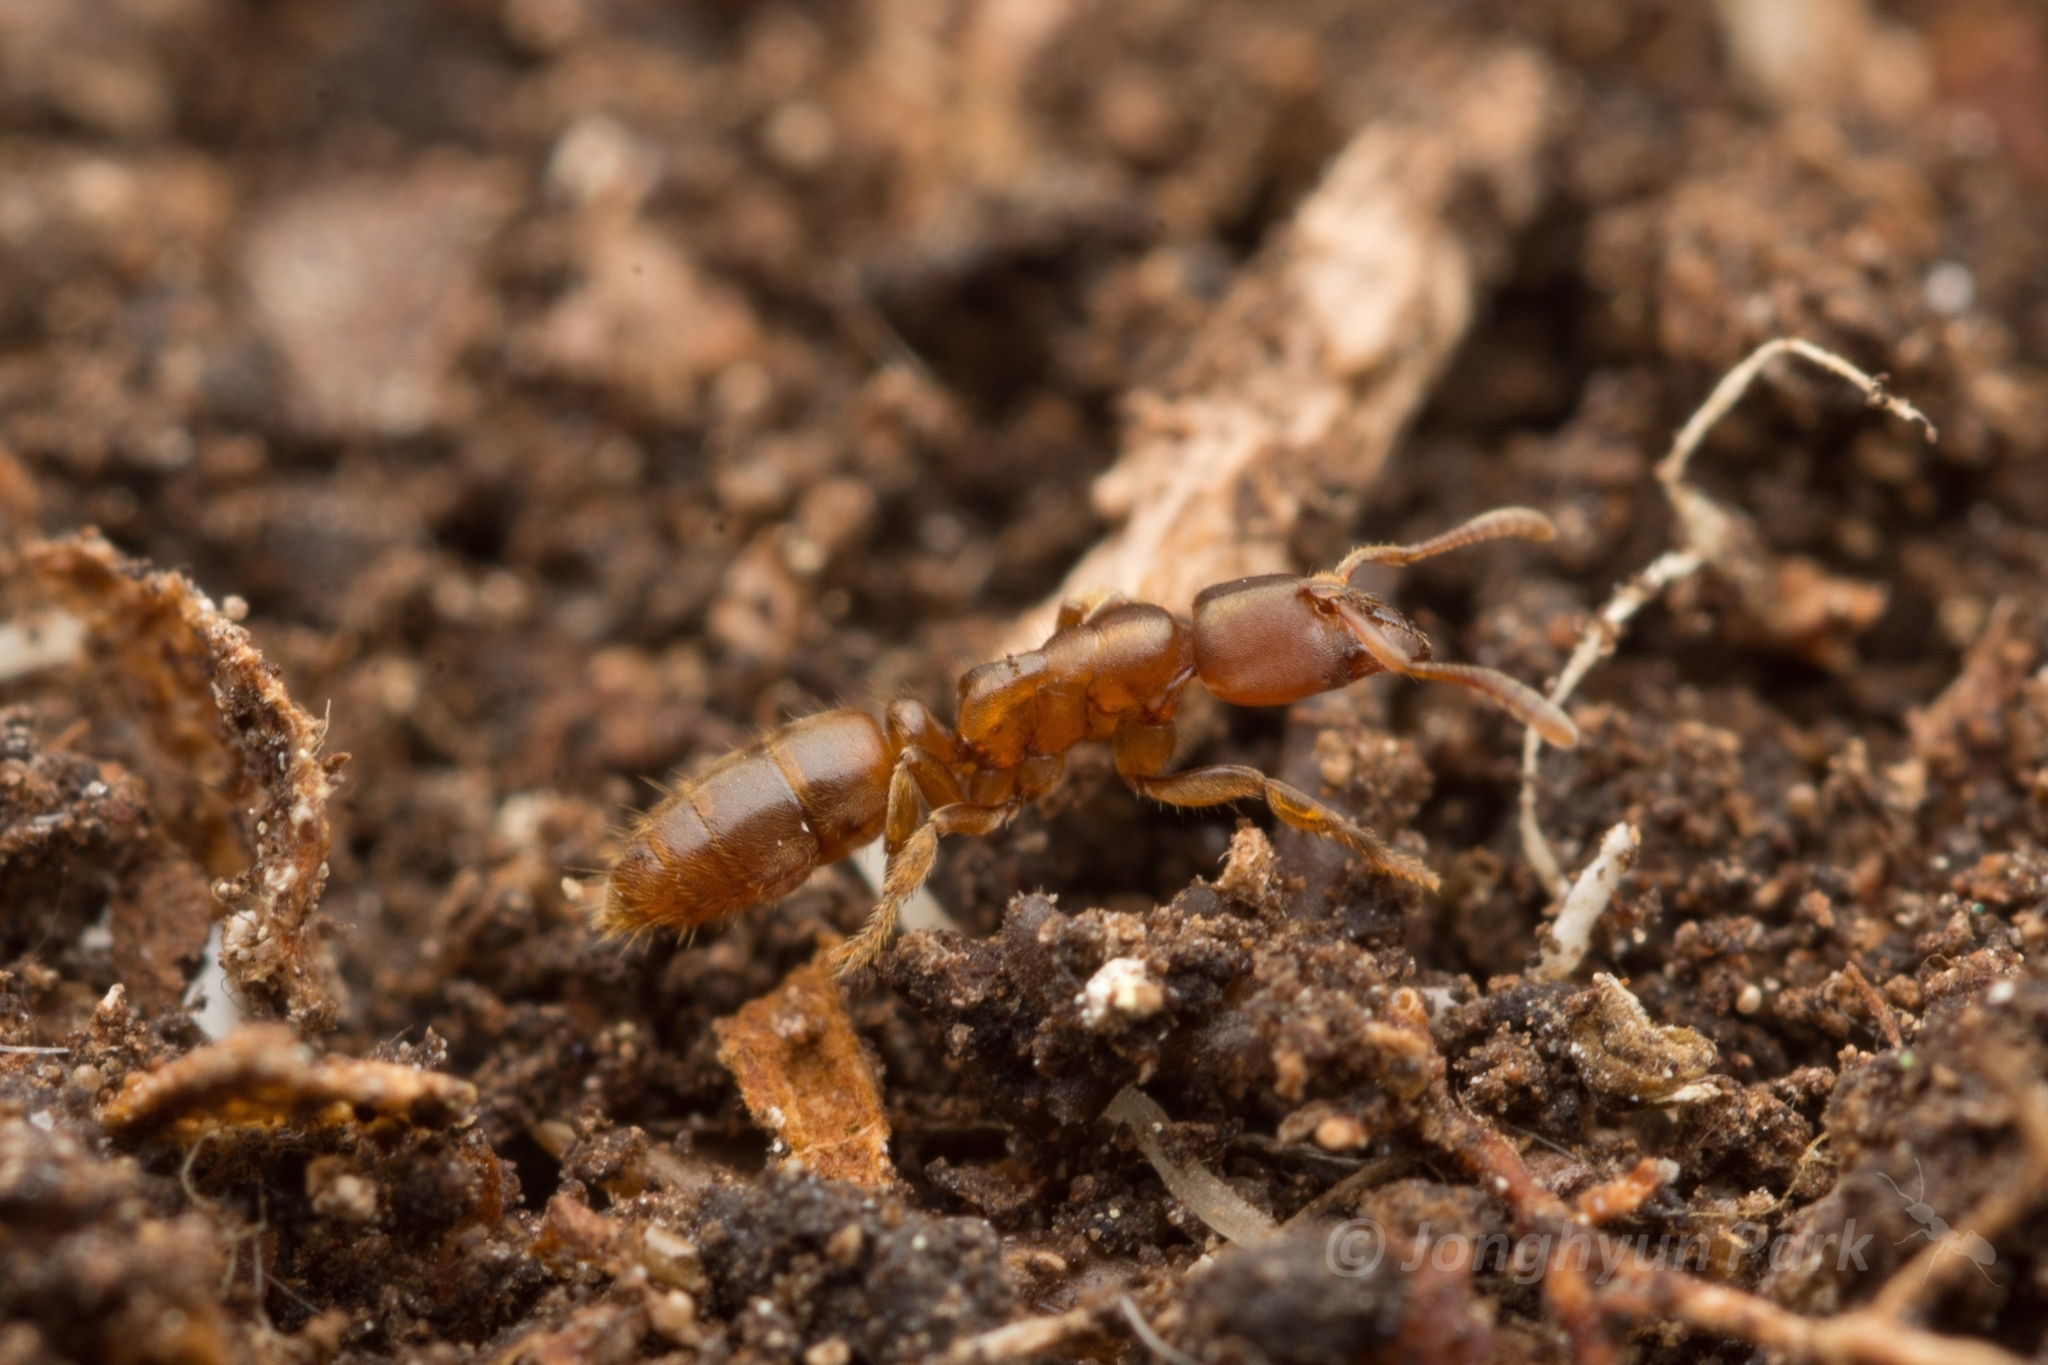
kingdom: Animalia
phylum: Arthropoda
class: Insecta
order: Hymenoptera
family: Formicidae
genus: Cryptopone
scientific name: Cryptopone sauteri
